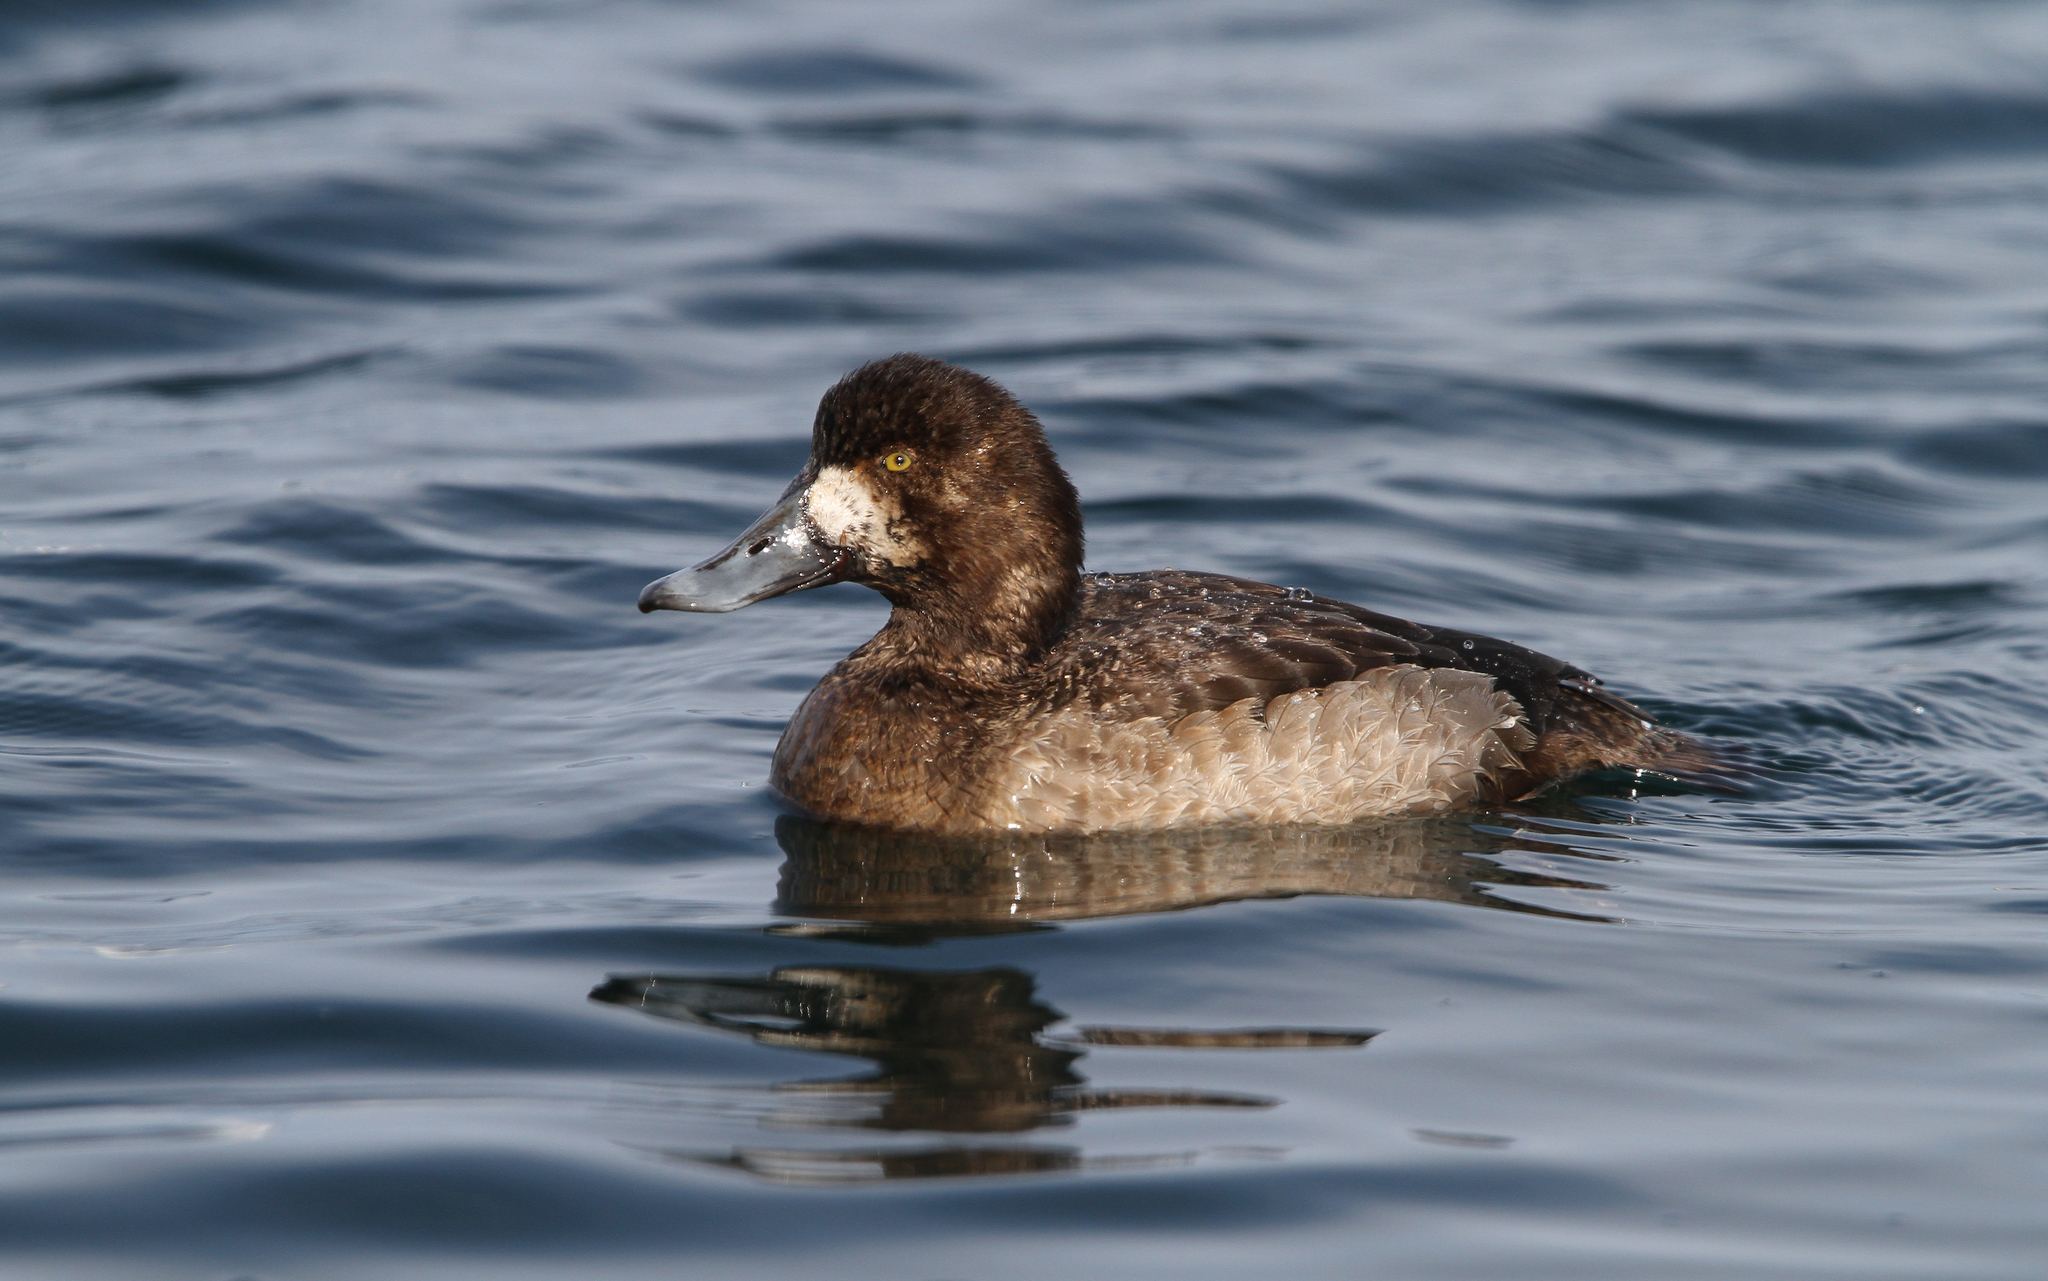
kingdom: Animalia
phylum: Chordata
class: Aves
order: Anseriformes
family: Anatidae
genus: Aythya
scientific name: Aythya marila
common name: Greater scaup
